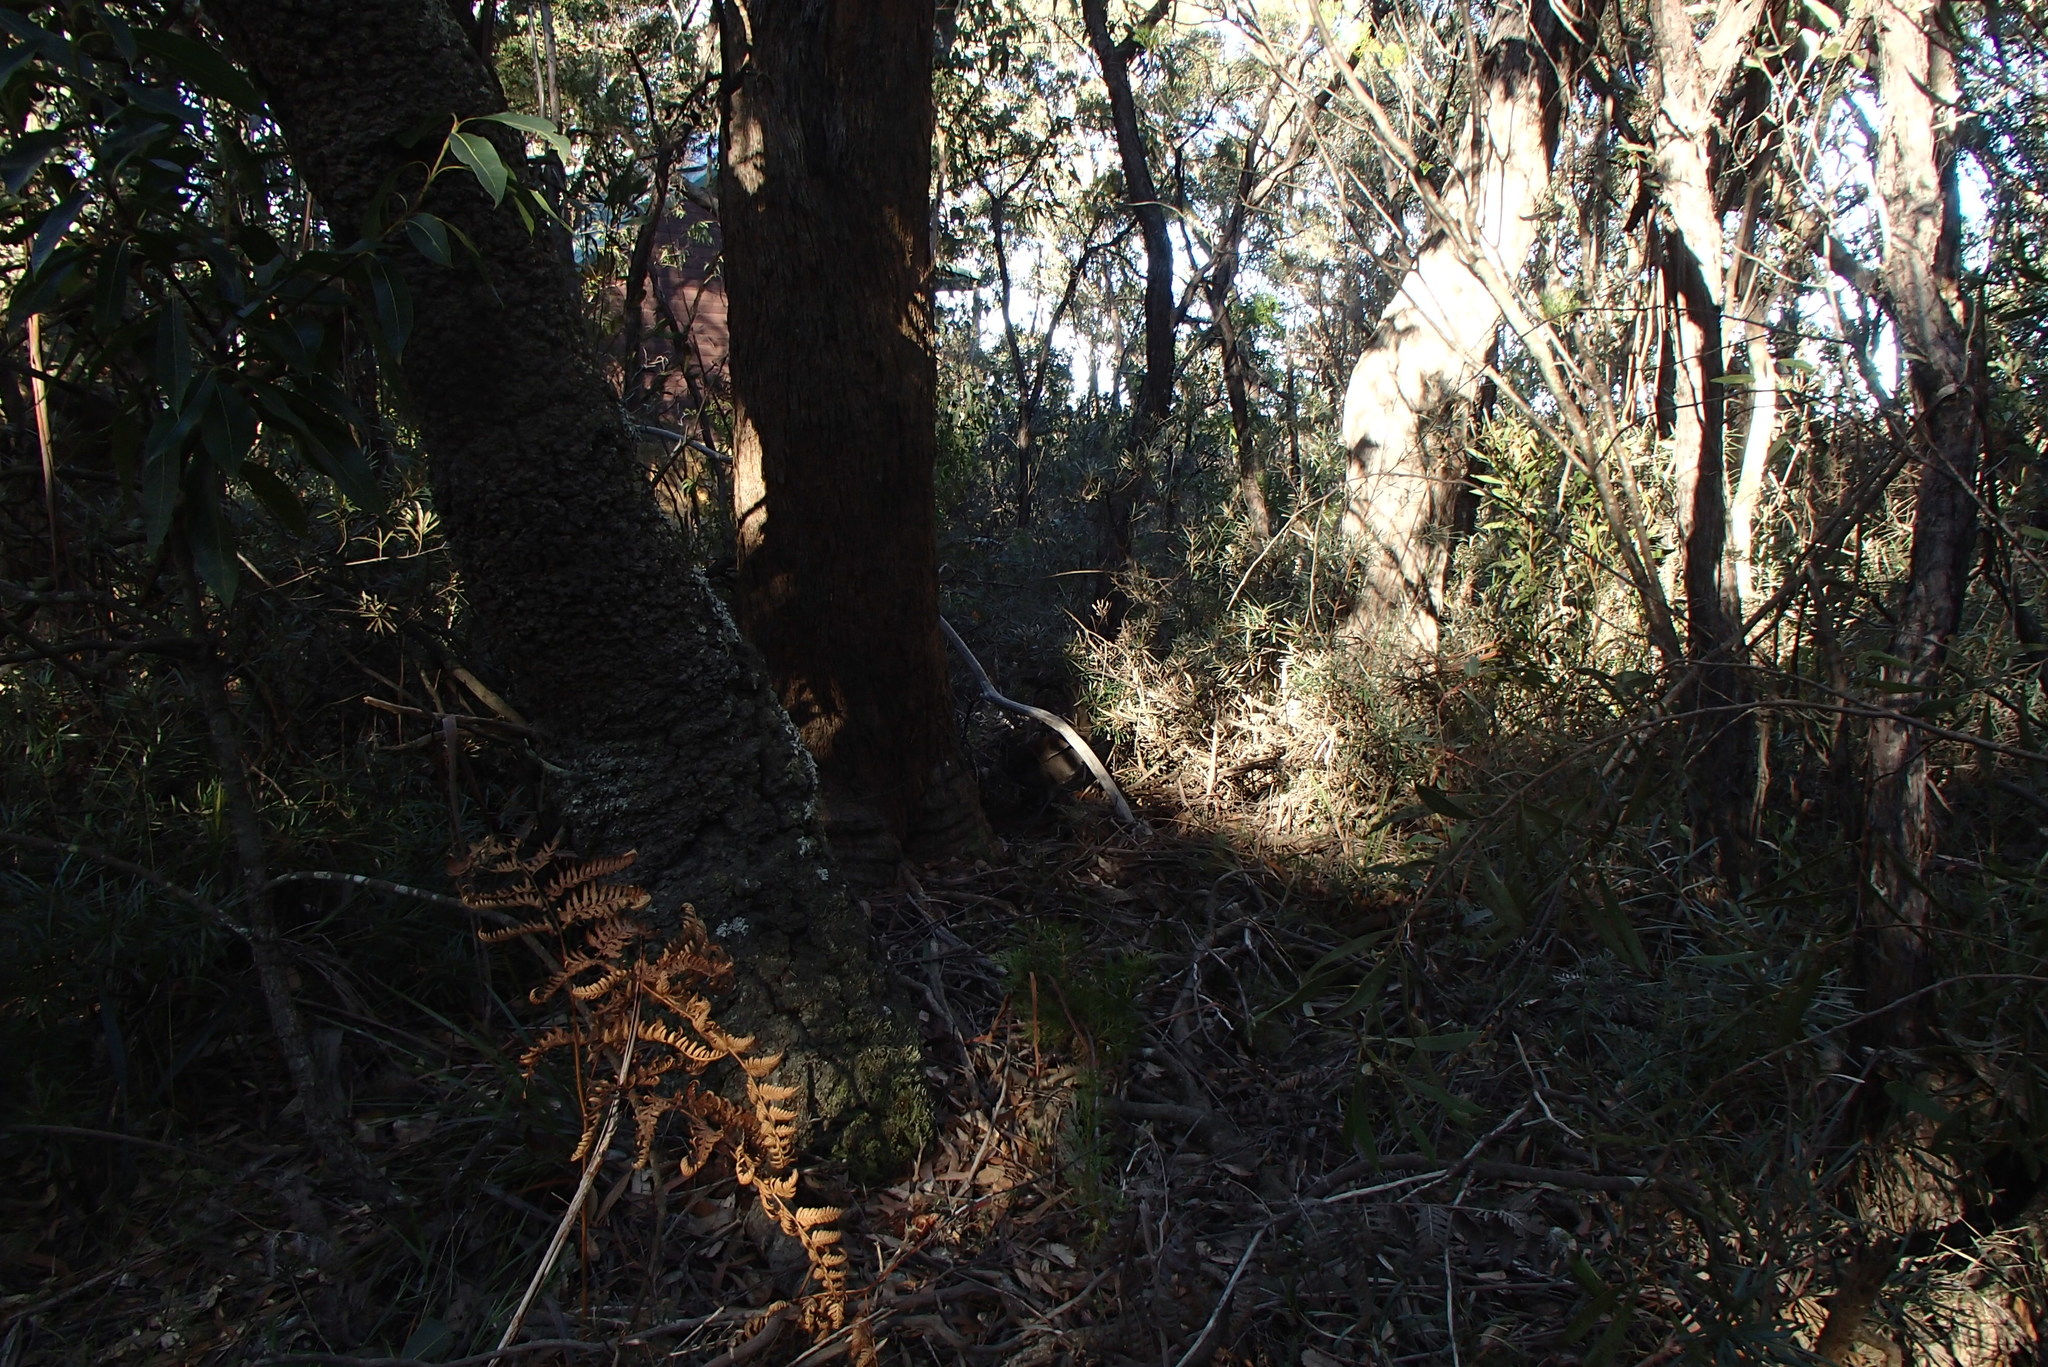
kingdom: Animalia
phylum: Chordata
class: Aves
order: Passeriformes
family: Menuridae
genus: Menura
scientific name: Menura novaehollandiae
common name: Superb lyrebird
